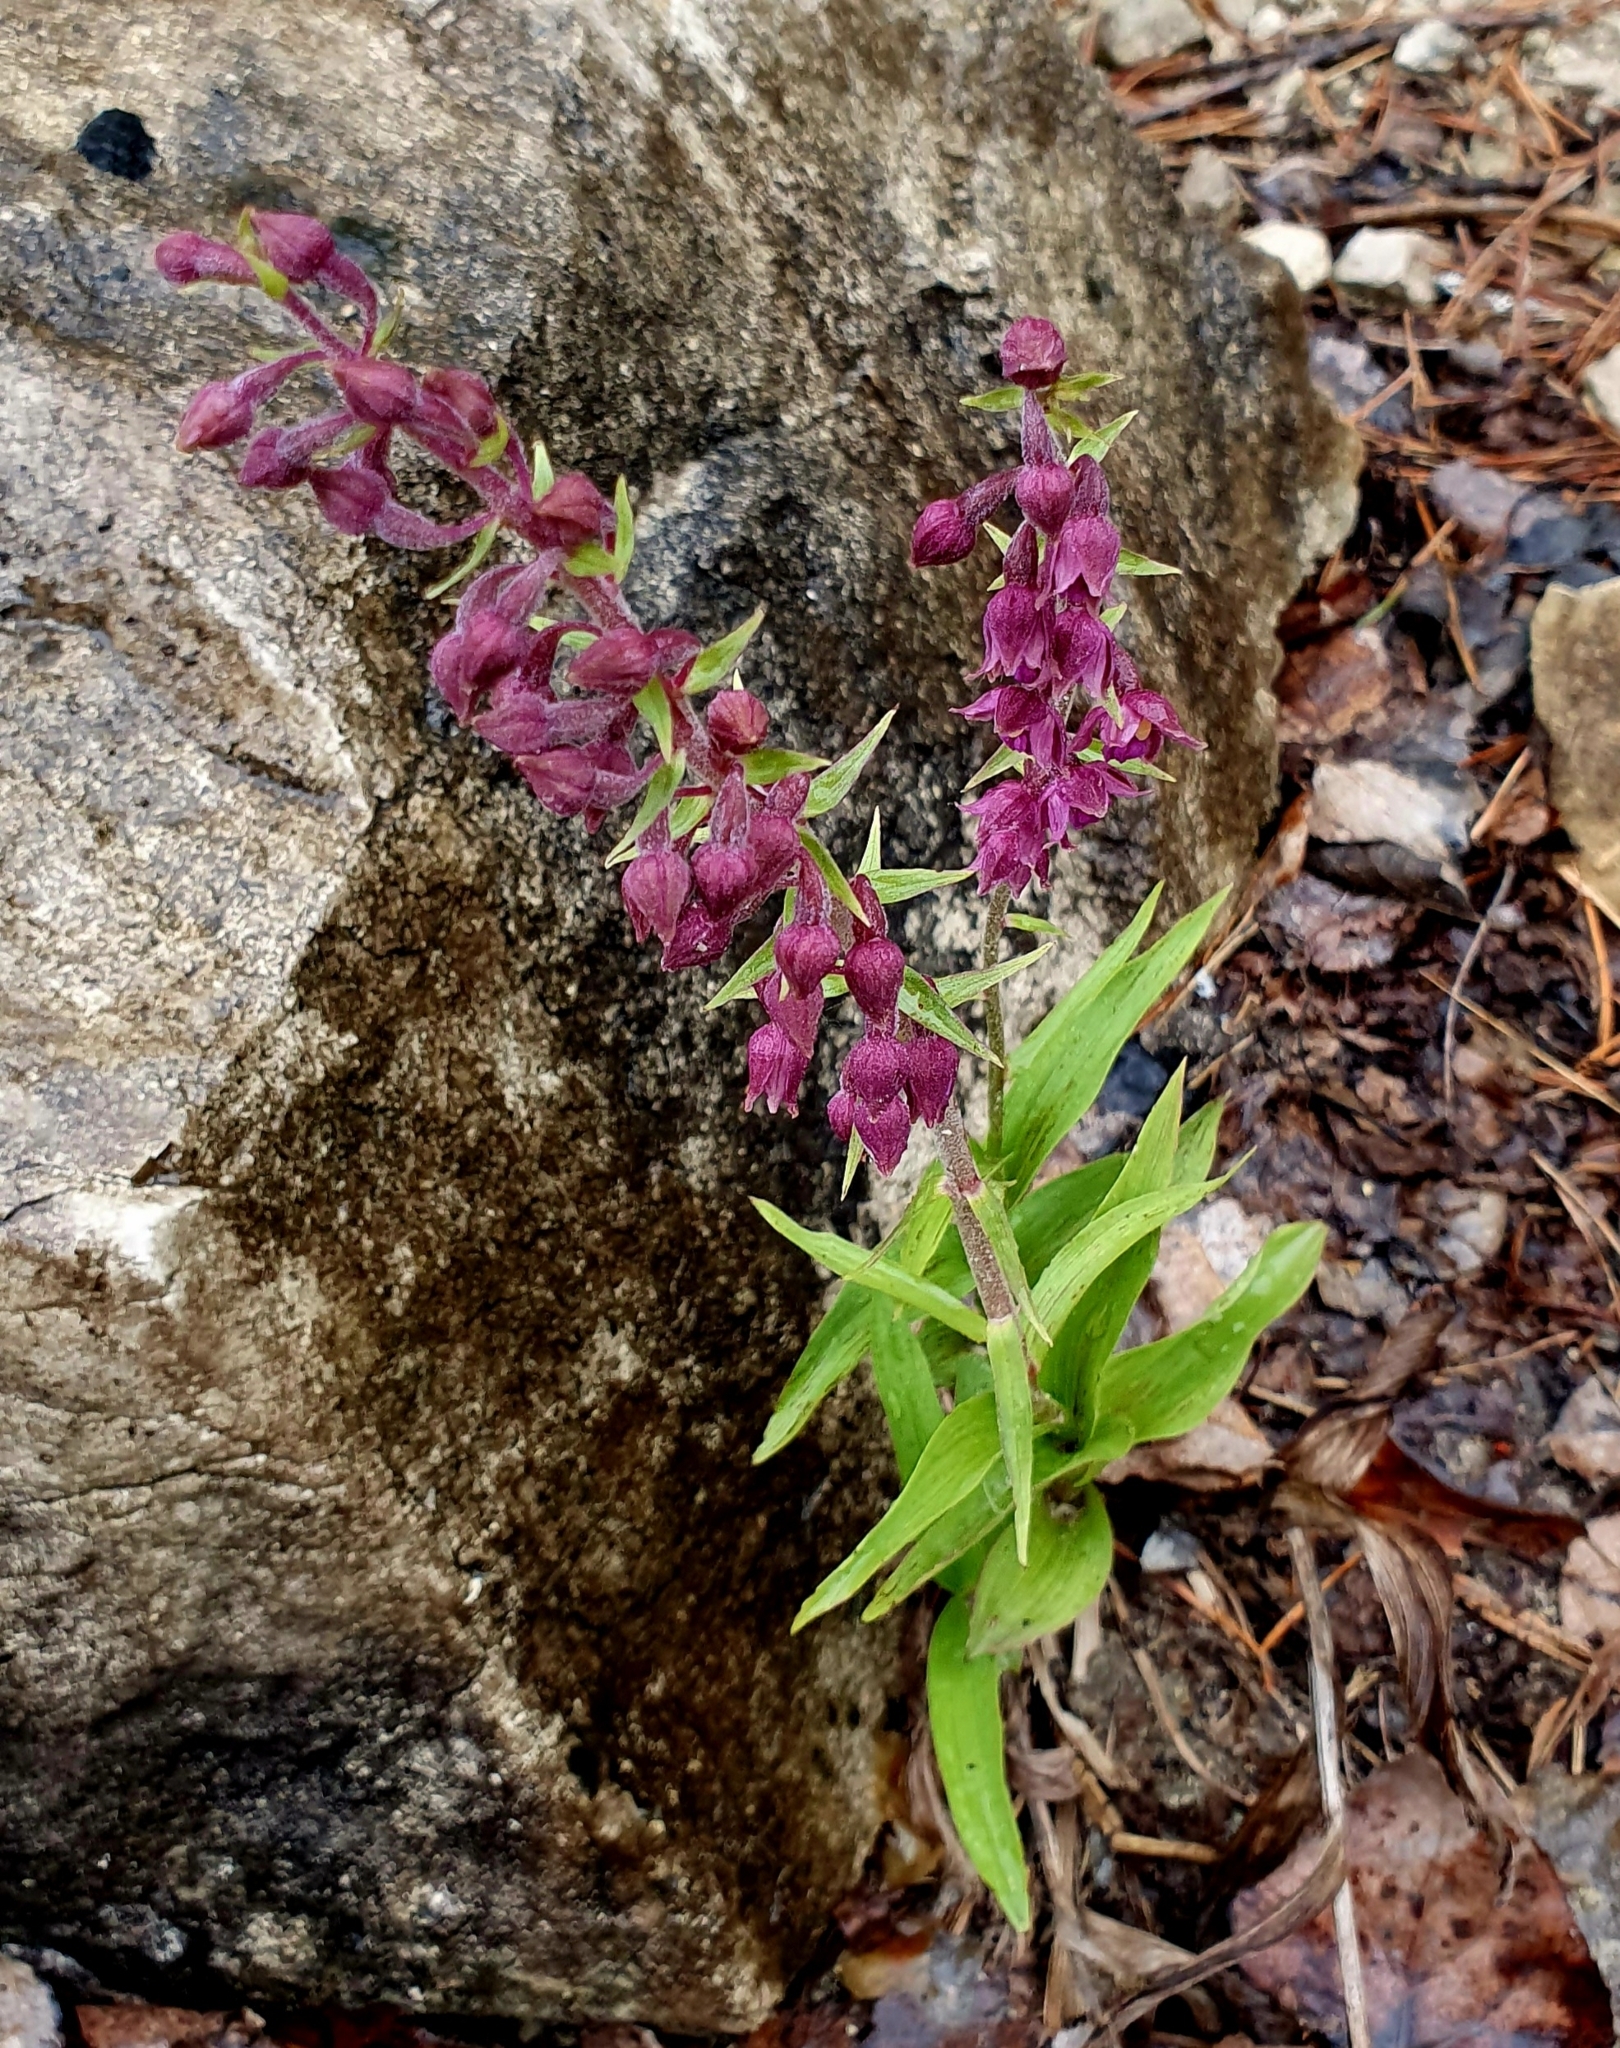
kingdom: Plantae
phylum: Tracheophyta
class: Liliopsida
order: Asparagales
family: Orchidaceae
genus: Epipactis
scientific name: Epipactis atrorubens
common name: Dark-red helleborine
